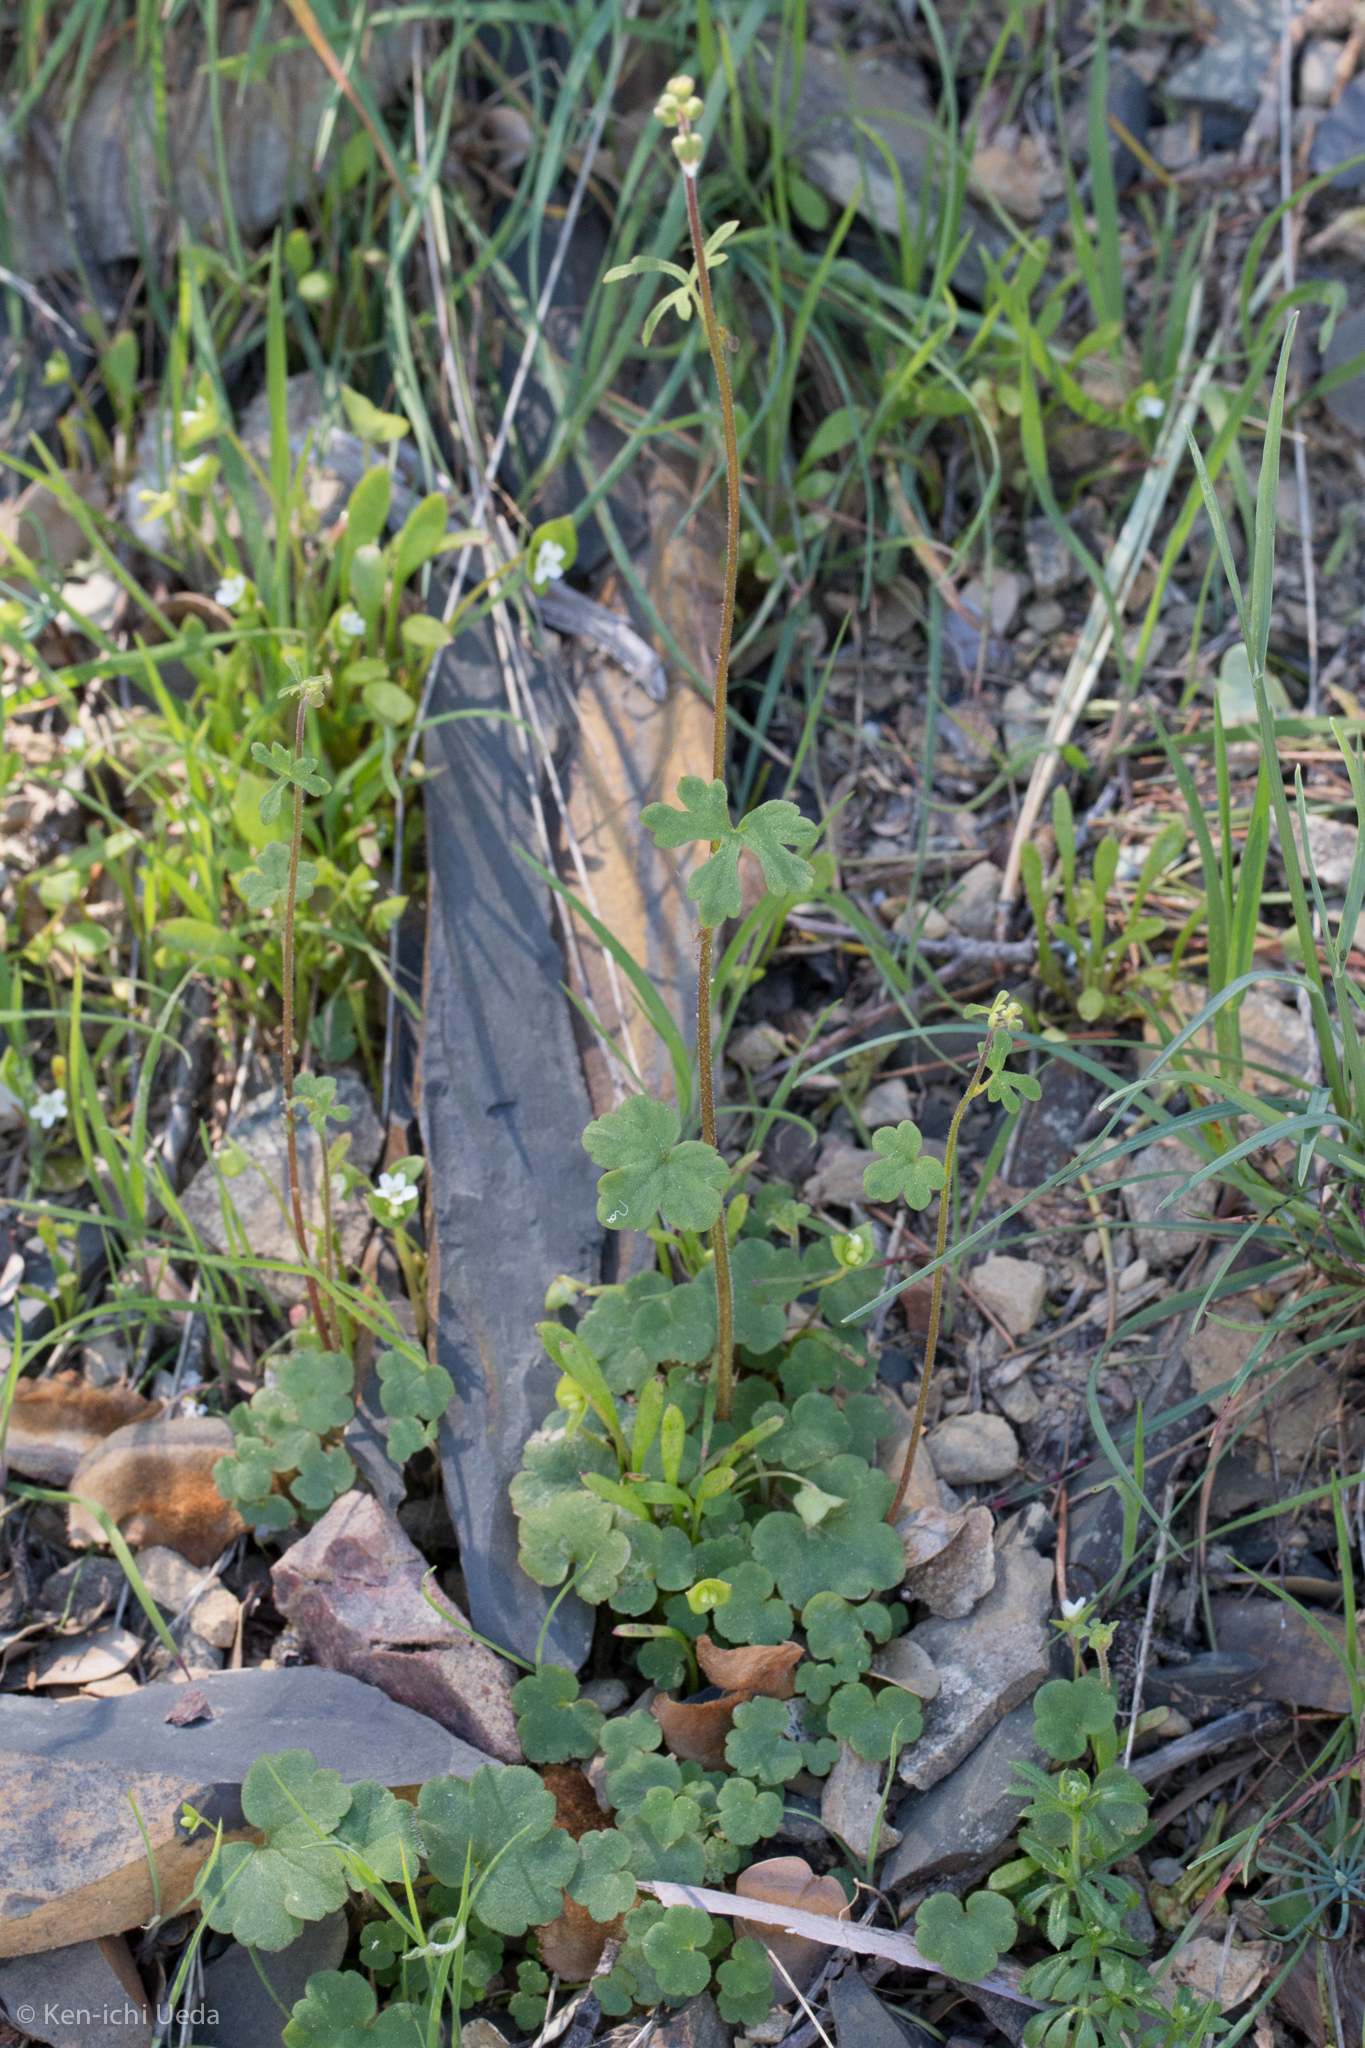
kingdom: Plantae
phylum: Tracheophyta
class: Magnoliopsida
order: Saxifragales
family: Saxifragaceae
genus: Lithophragma
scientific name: Lithophragma heterophyllum
